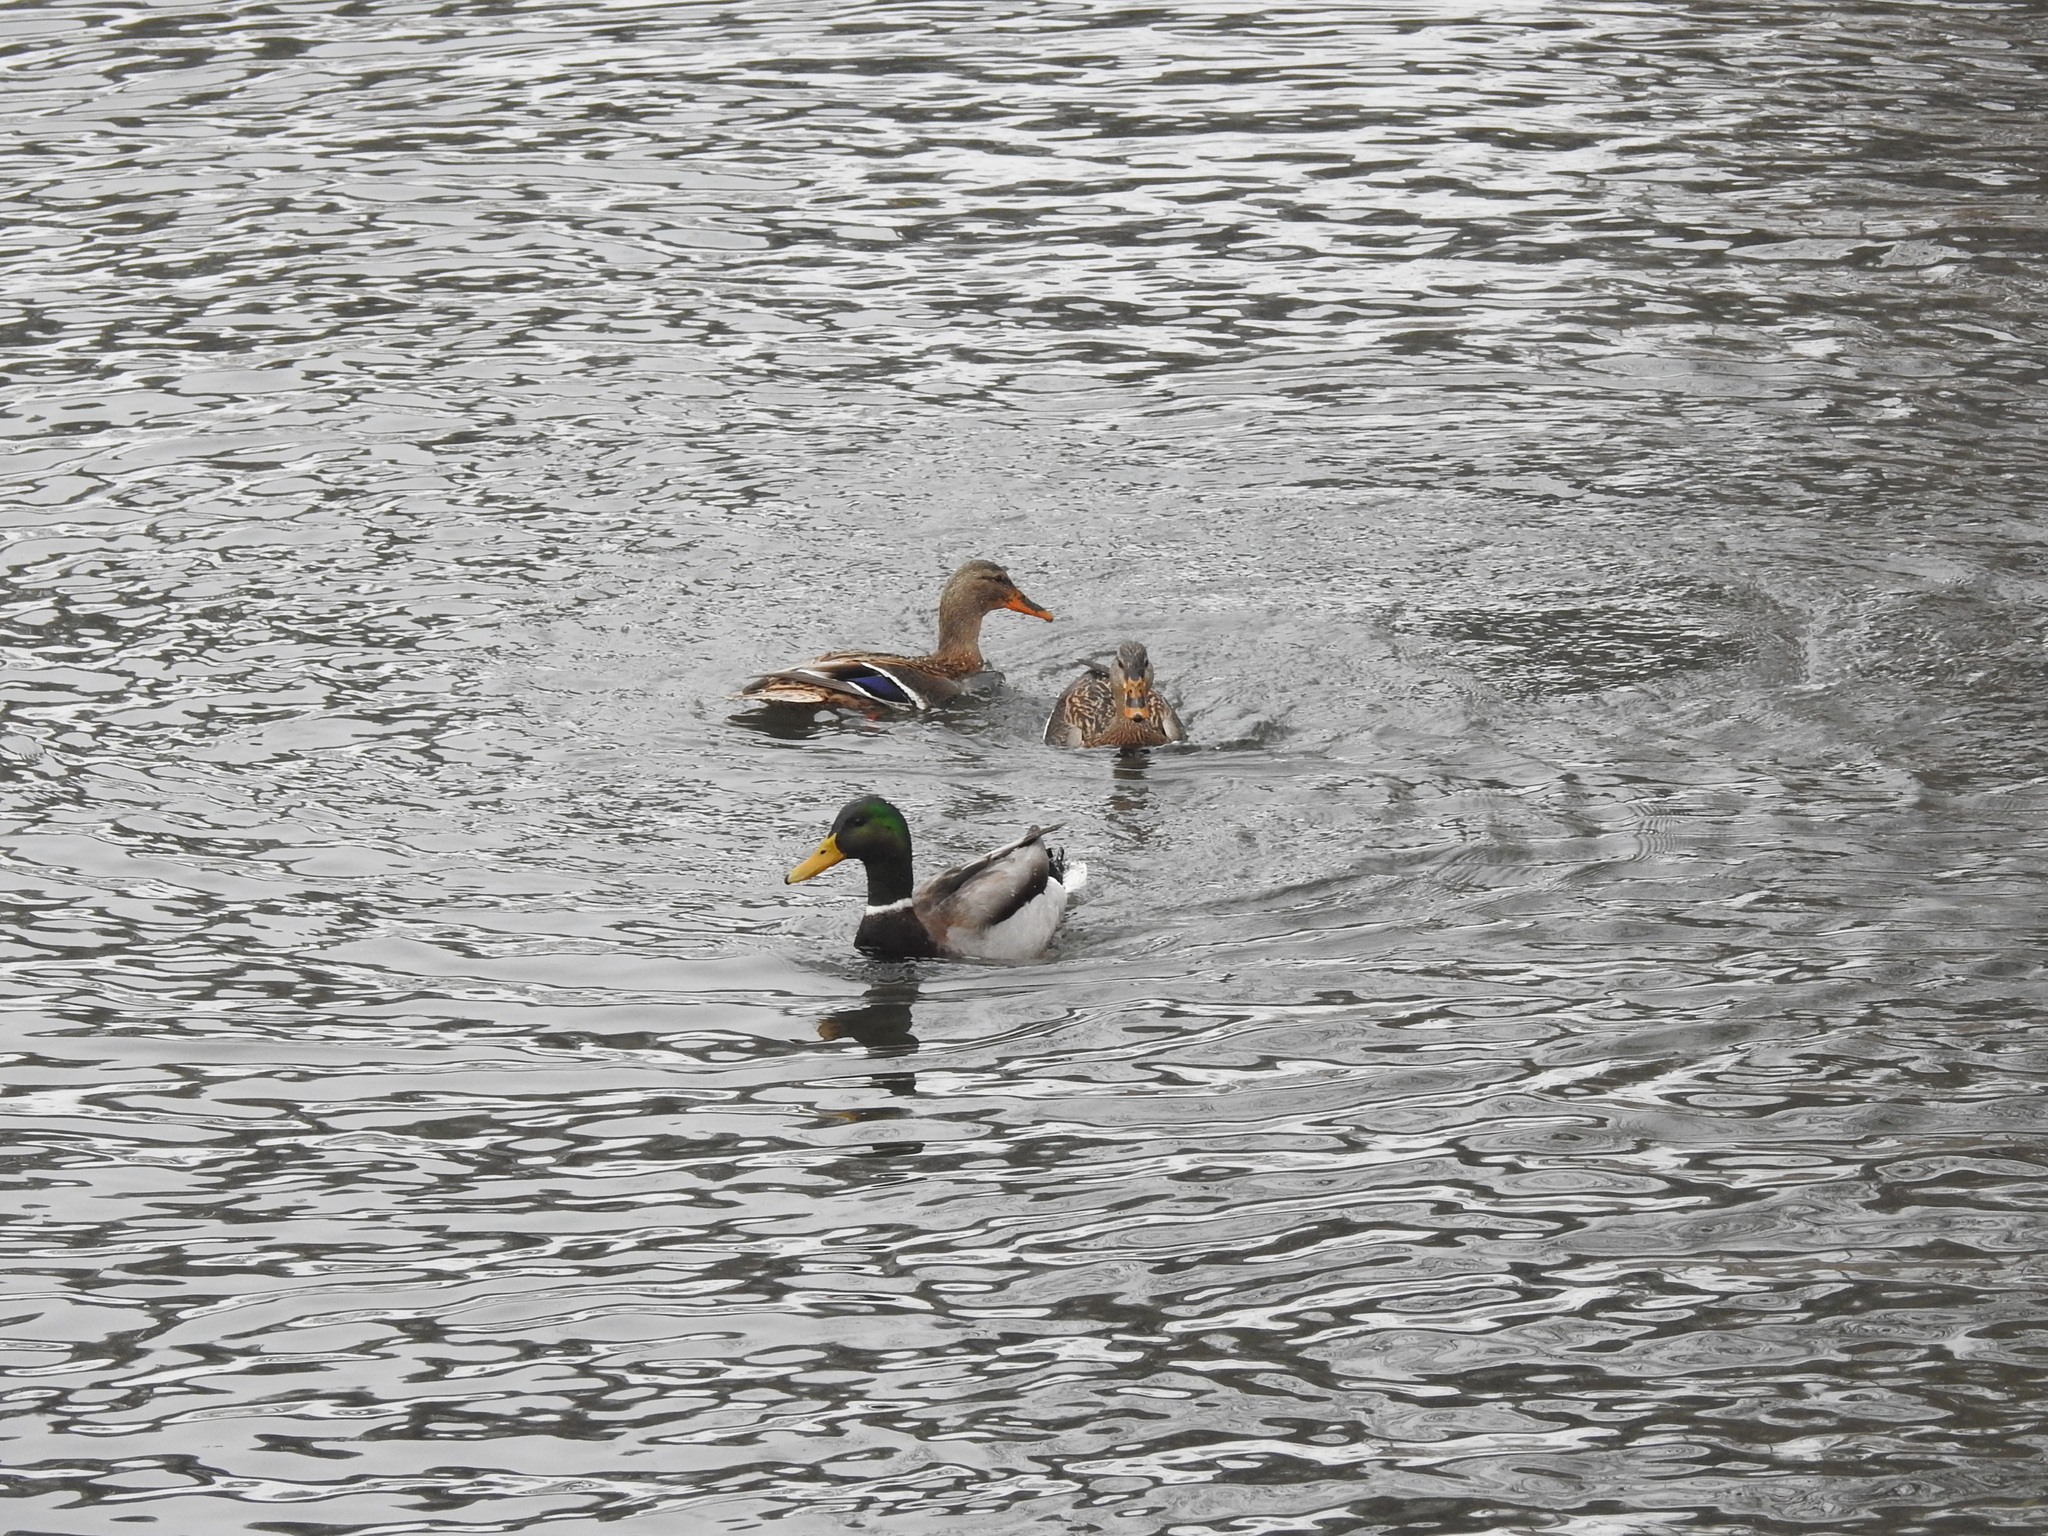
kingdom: Animalia
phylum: Chordata
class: Aves
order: Anseriformes
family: Anatidae
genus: Anas
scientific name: Anas platyrhynchos
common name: Mallard
